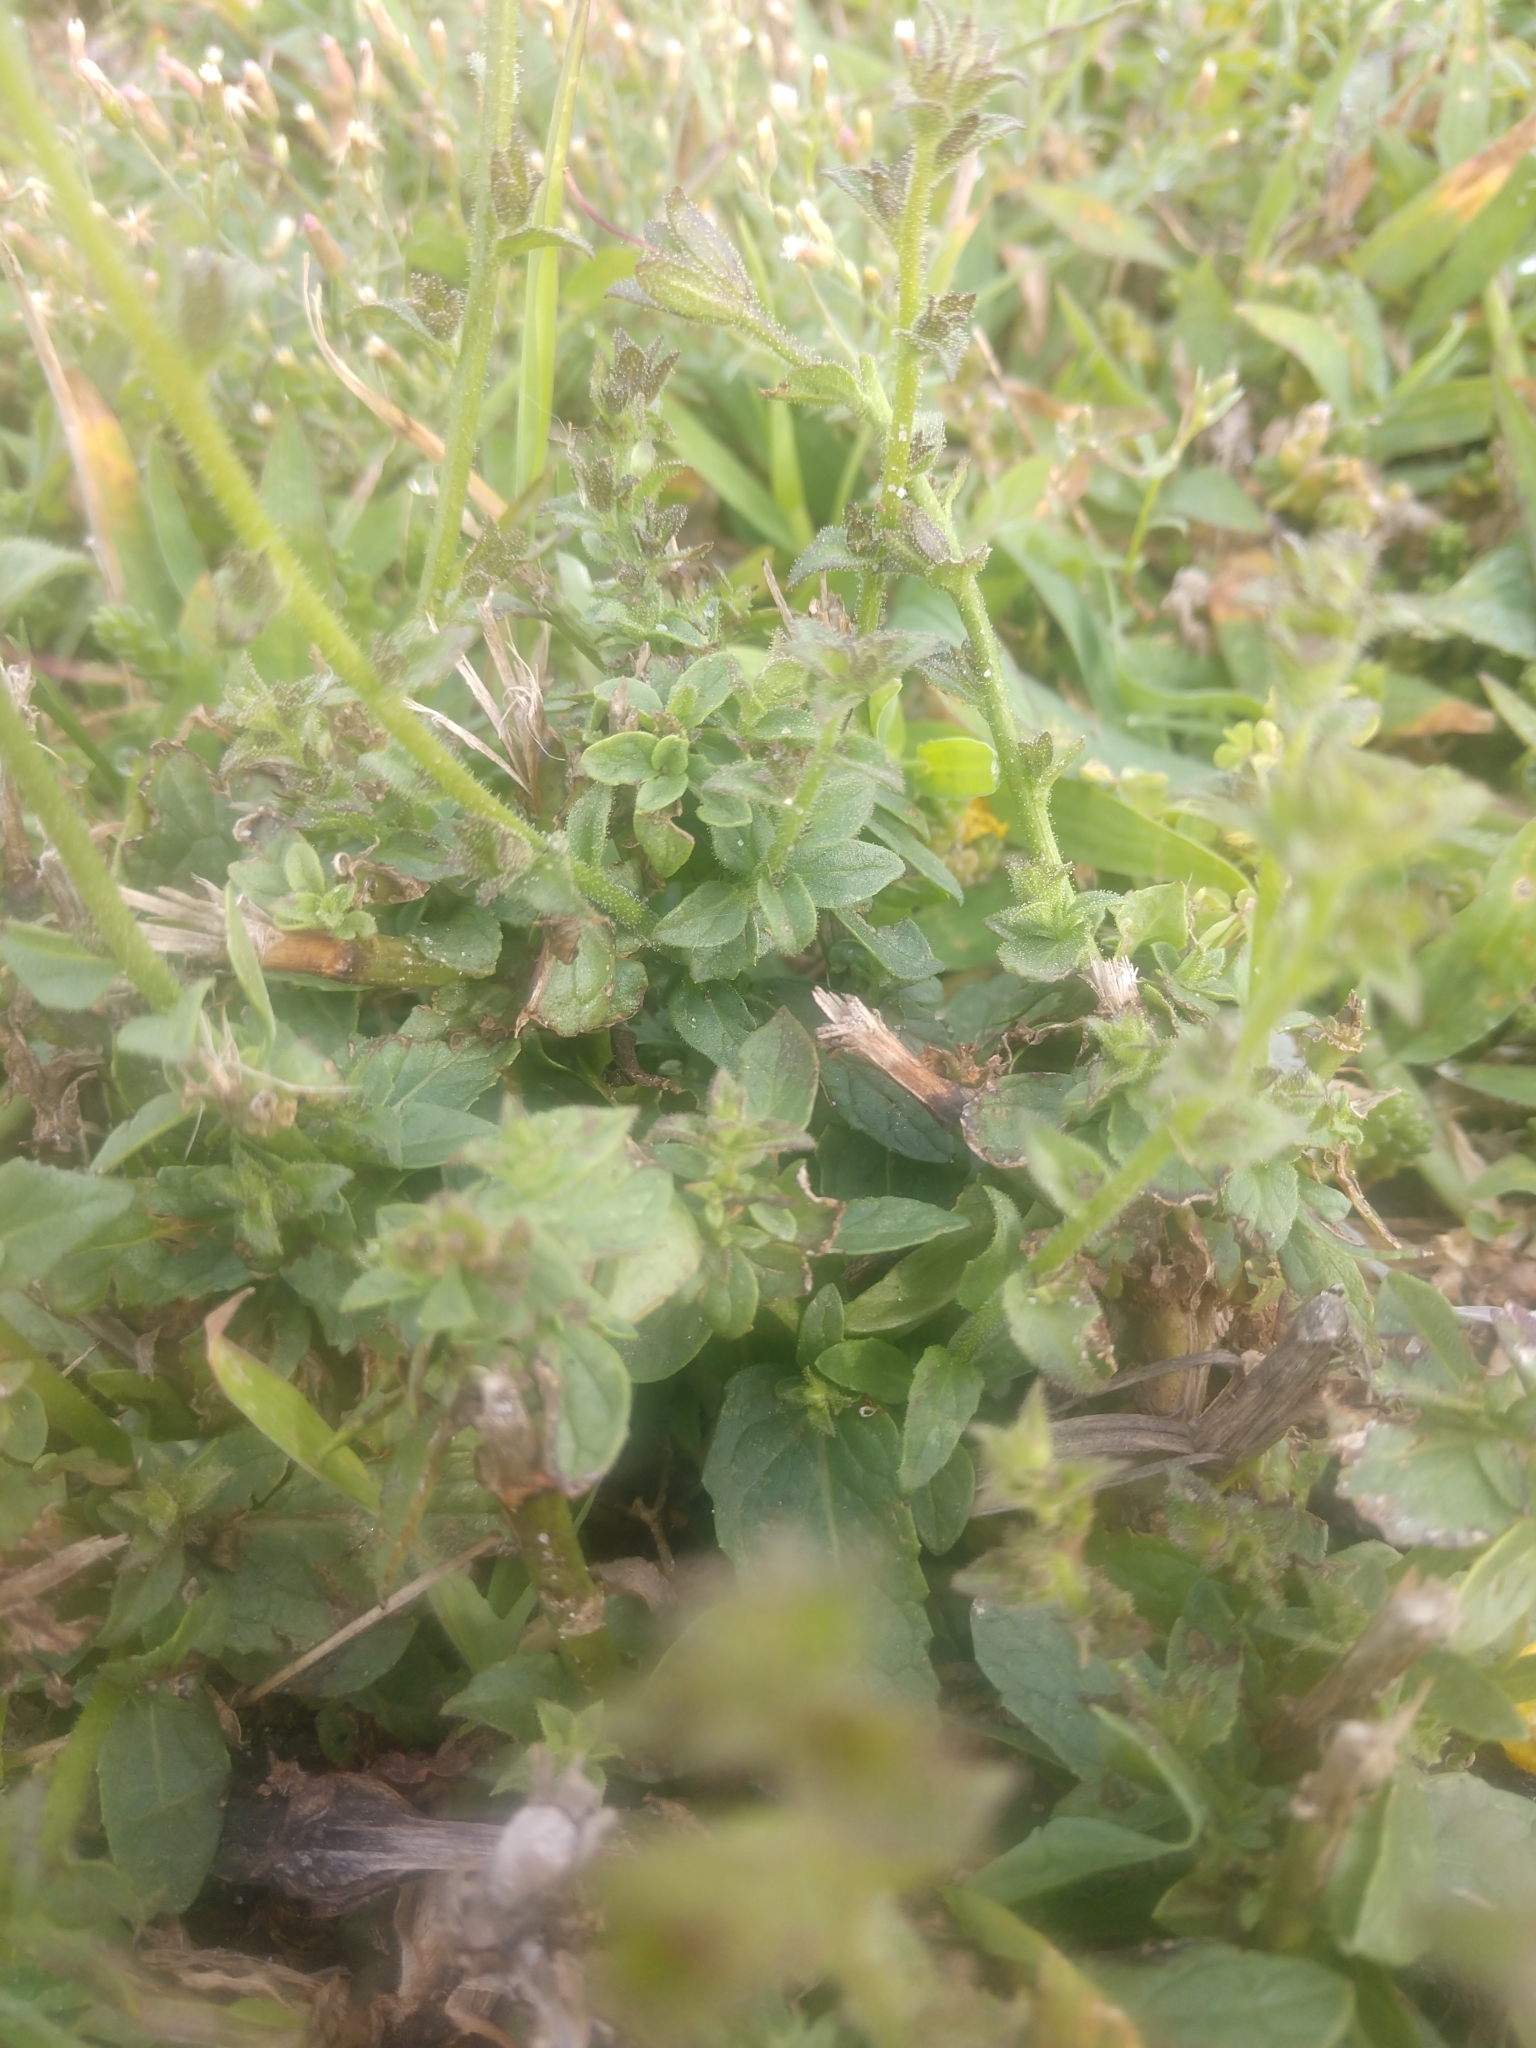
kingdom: Plantae
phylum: Tracheophyta
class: Magnoliopsida
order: Lamiales
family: Scrophulariaceae
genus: Verbascum
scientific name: Verbascum blattaria
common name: Moth mullein
